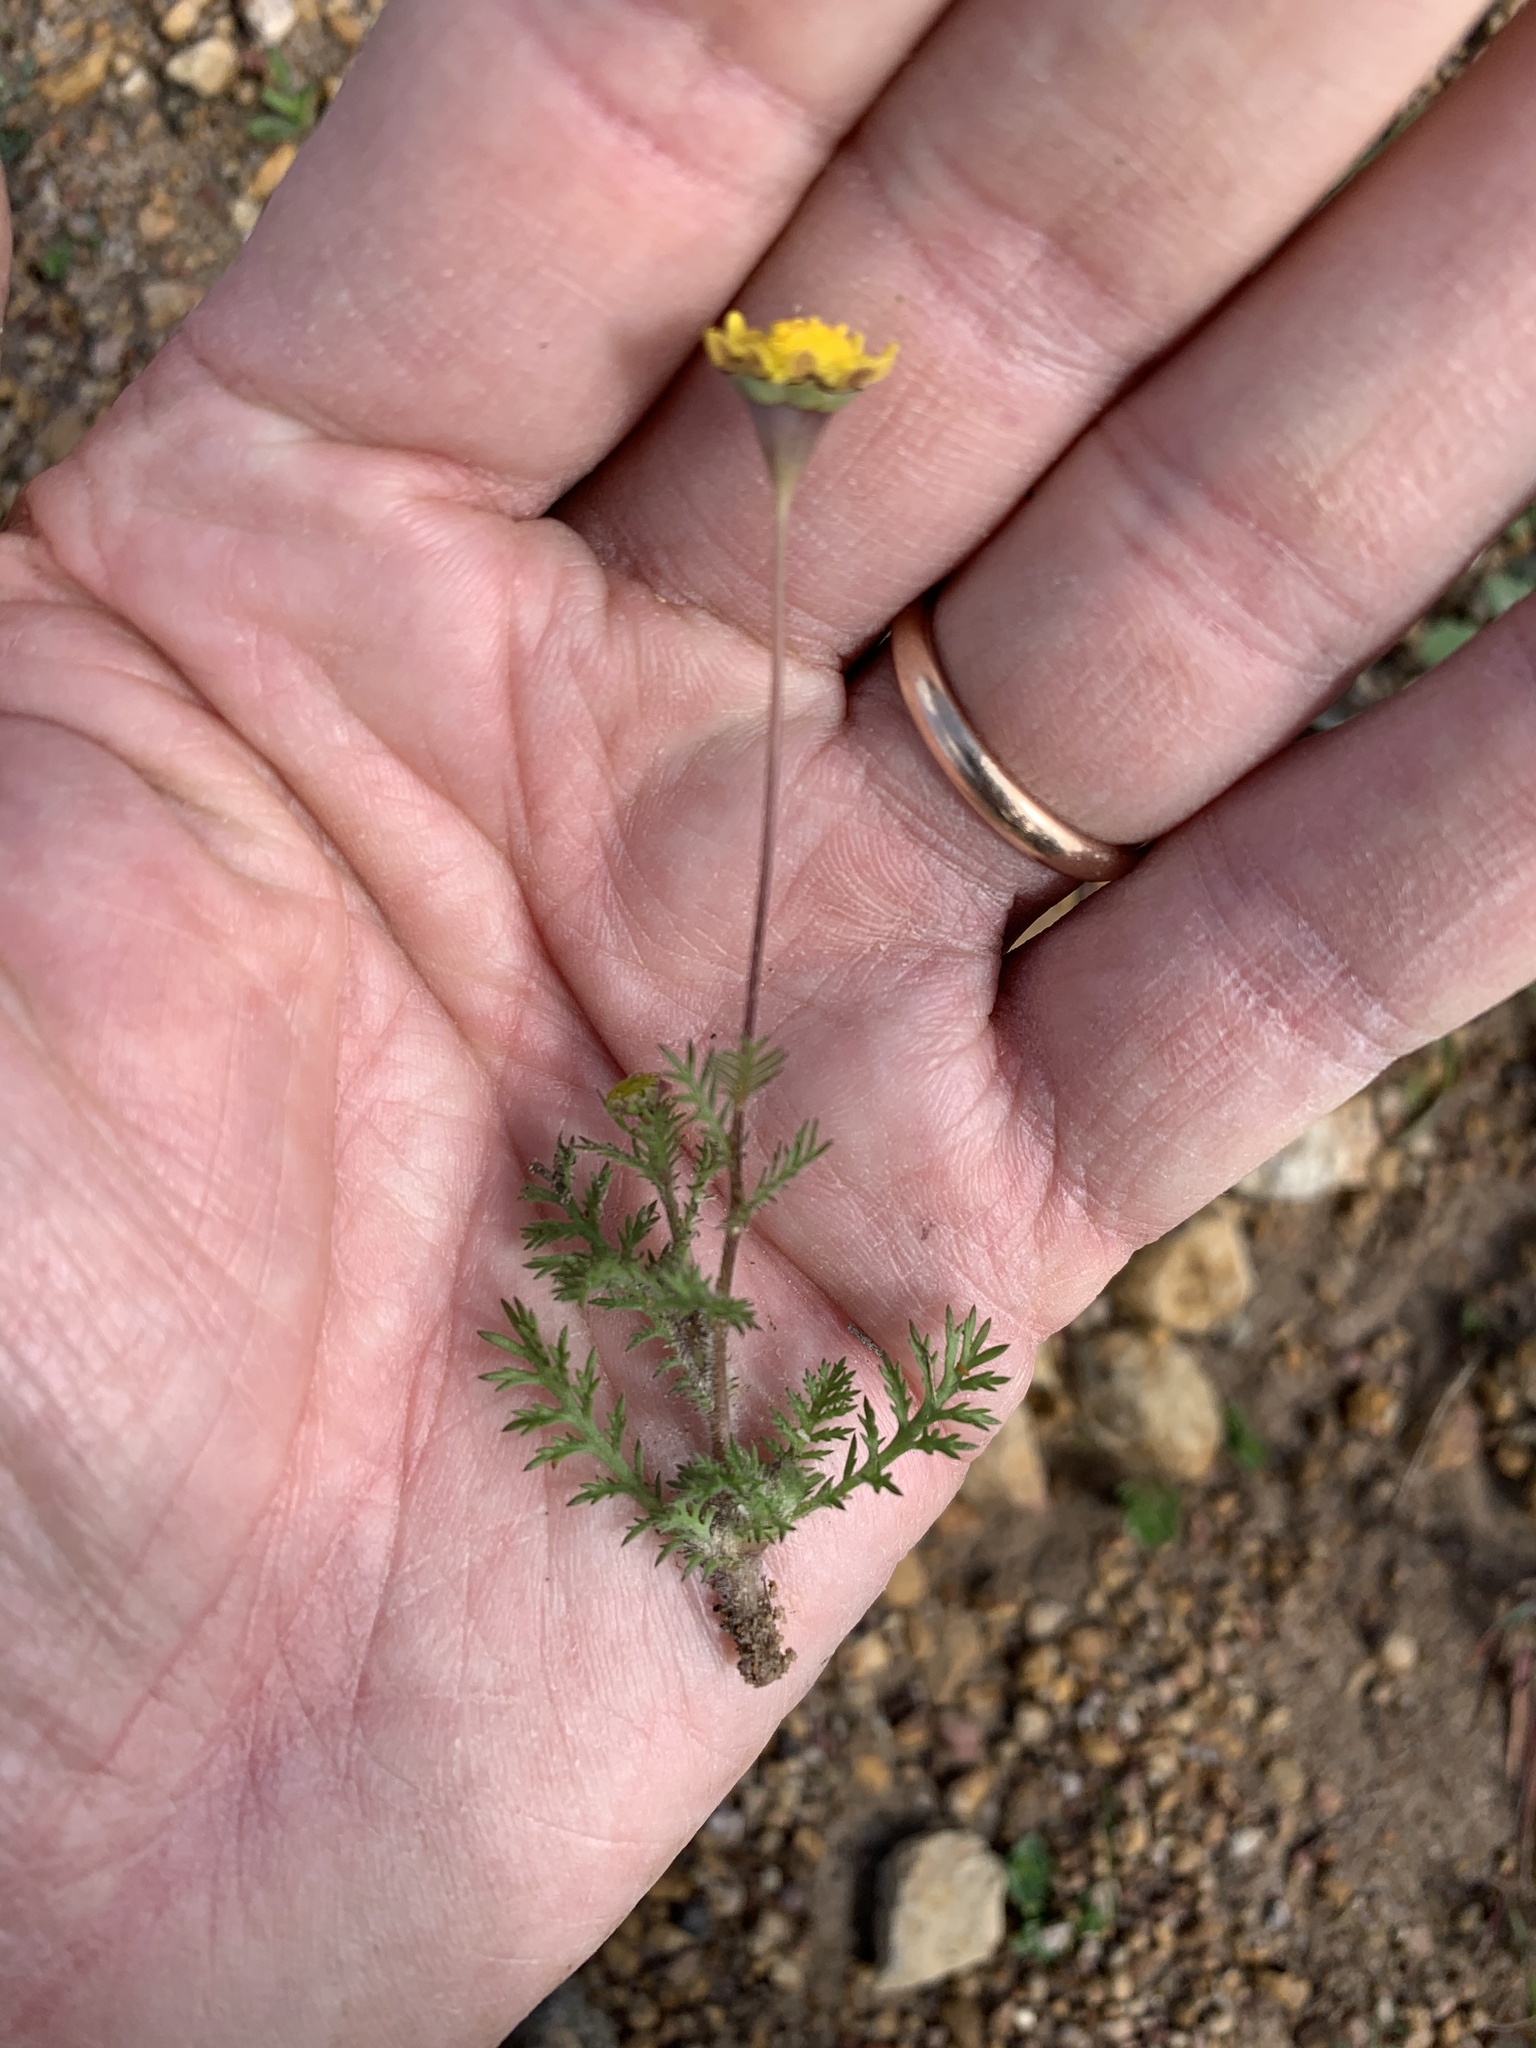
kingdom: Plantae
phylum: Tracheophyta
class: Magnoliopsida
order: Asterales
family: Asteraceae
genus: Cotula
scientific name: Cotula pruinosa
